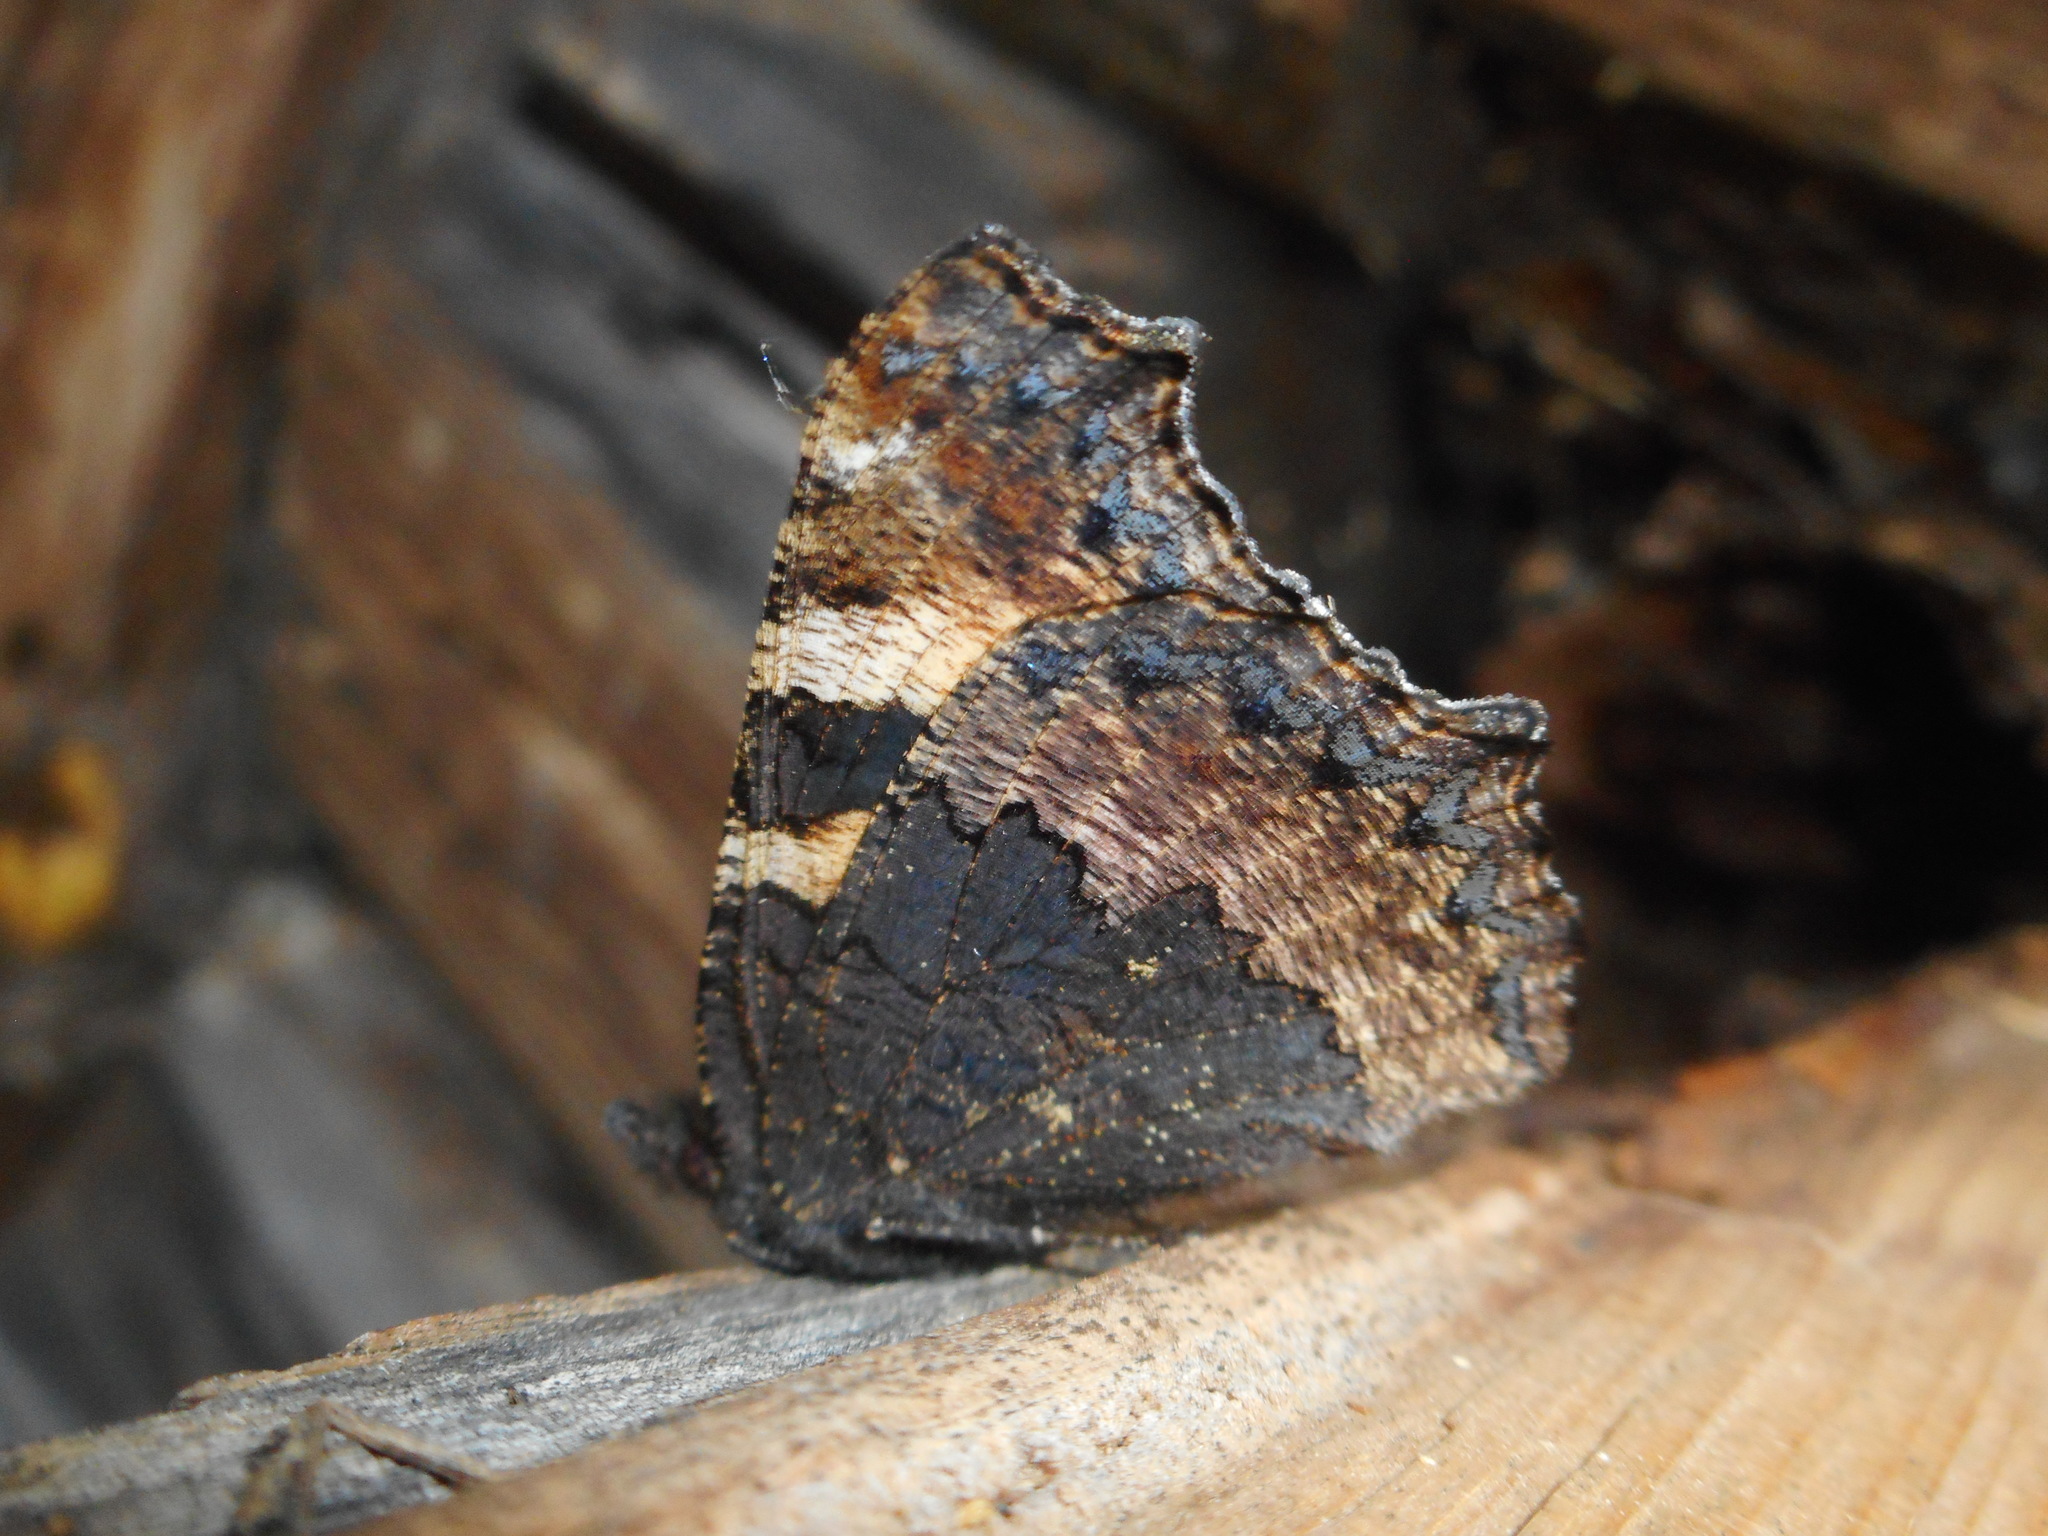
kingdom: Animalia
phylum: Arthropoda
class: Insecta
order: Lepidoptera
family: Nymphalidae
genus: Aglais
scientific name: Aglais urticae
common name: Small tortoiseshell
